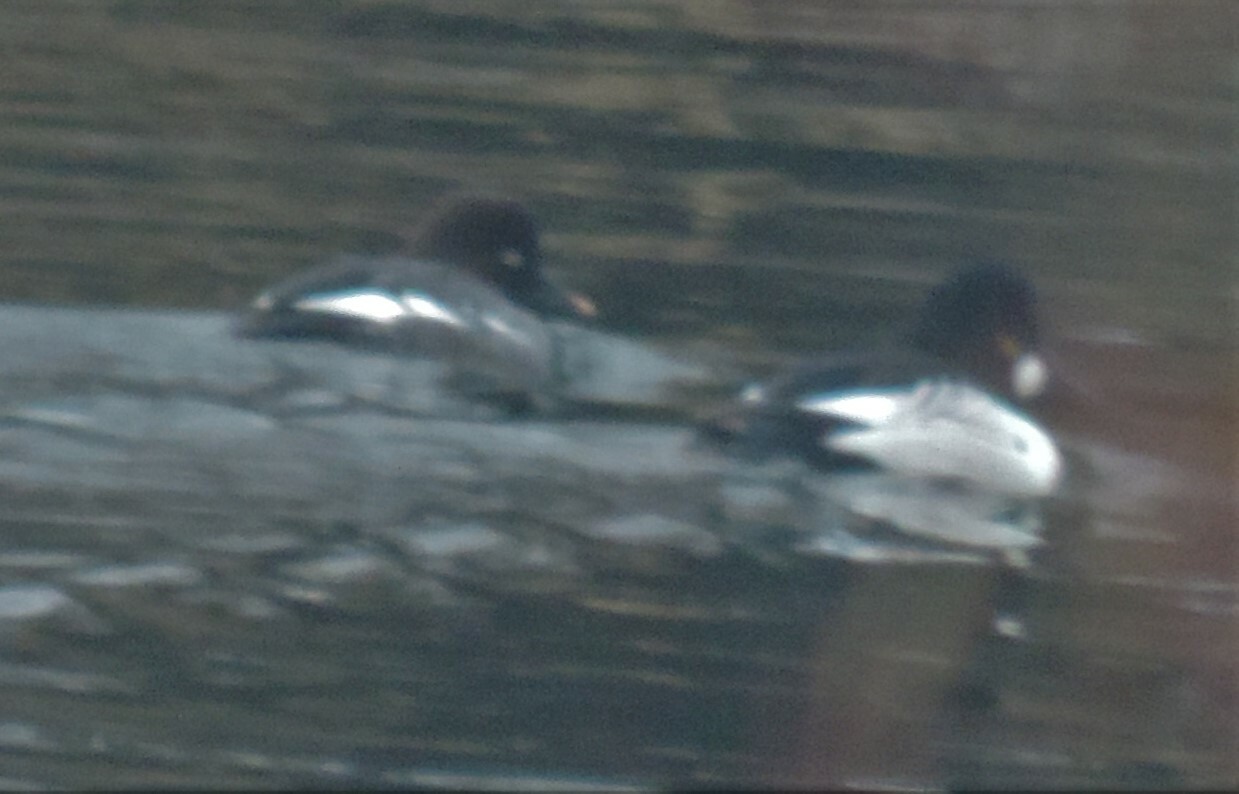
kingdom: Animalia
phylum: Chordata
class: Aves
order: Anseriformes
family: Anatidae
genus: Bucephala
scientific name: Bucephala clangula
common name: Common goldeneye
